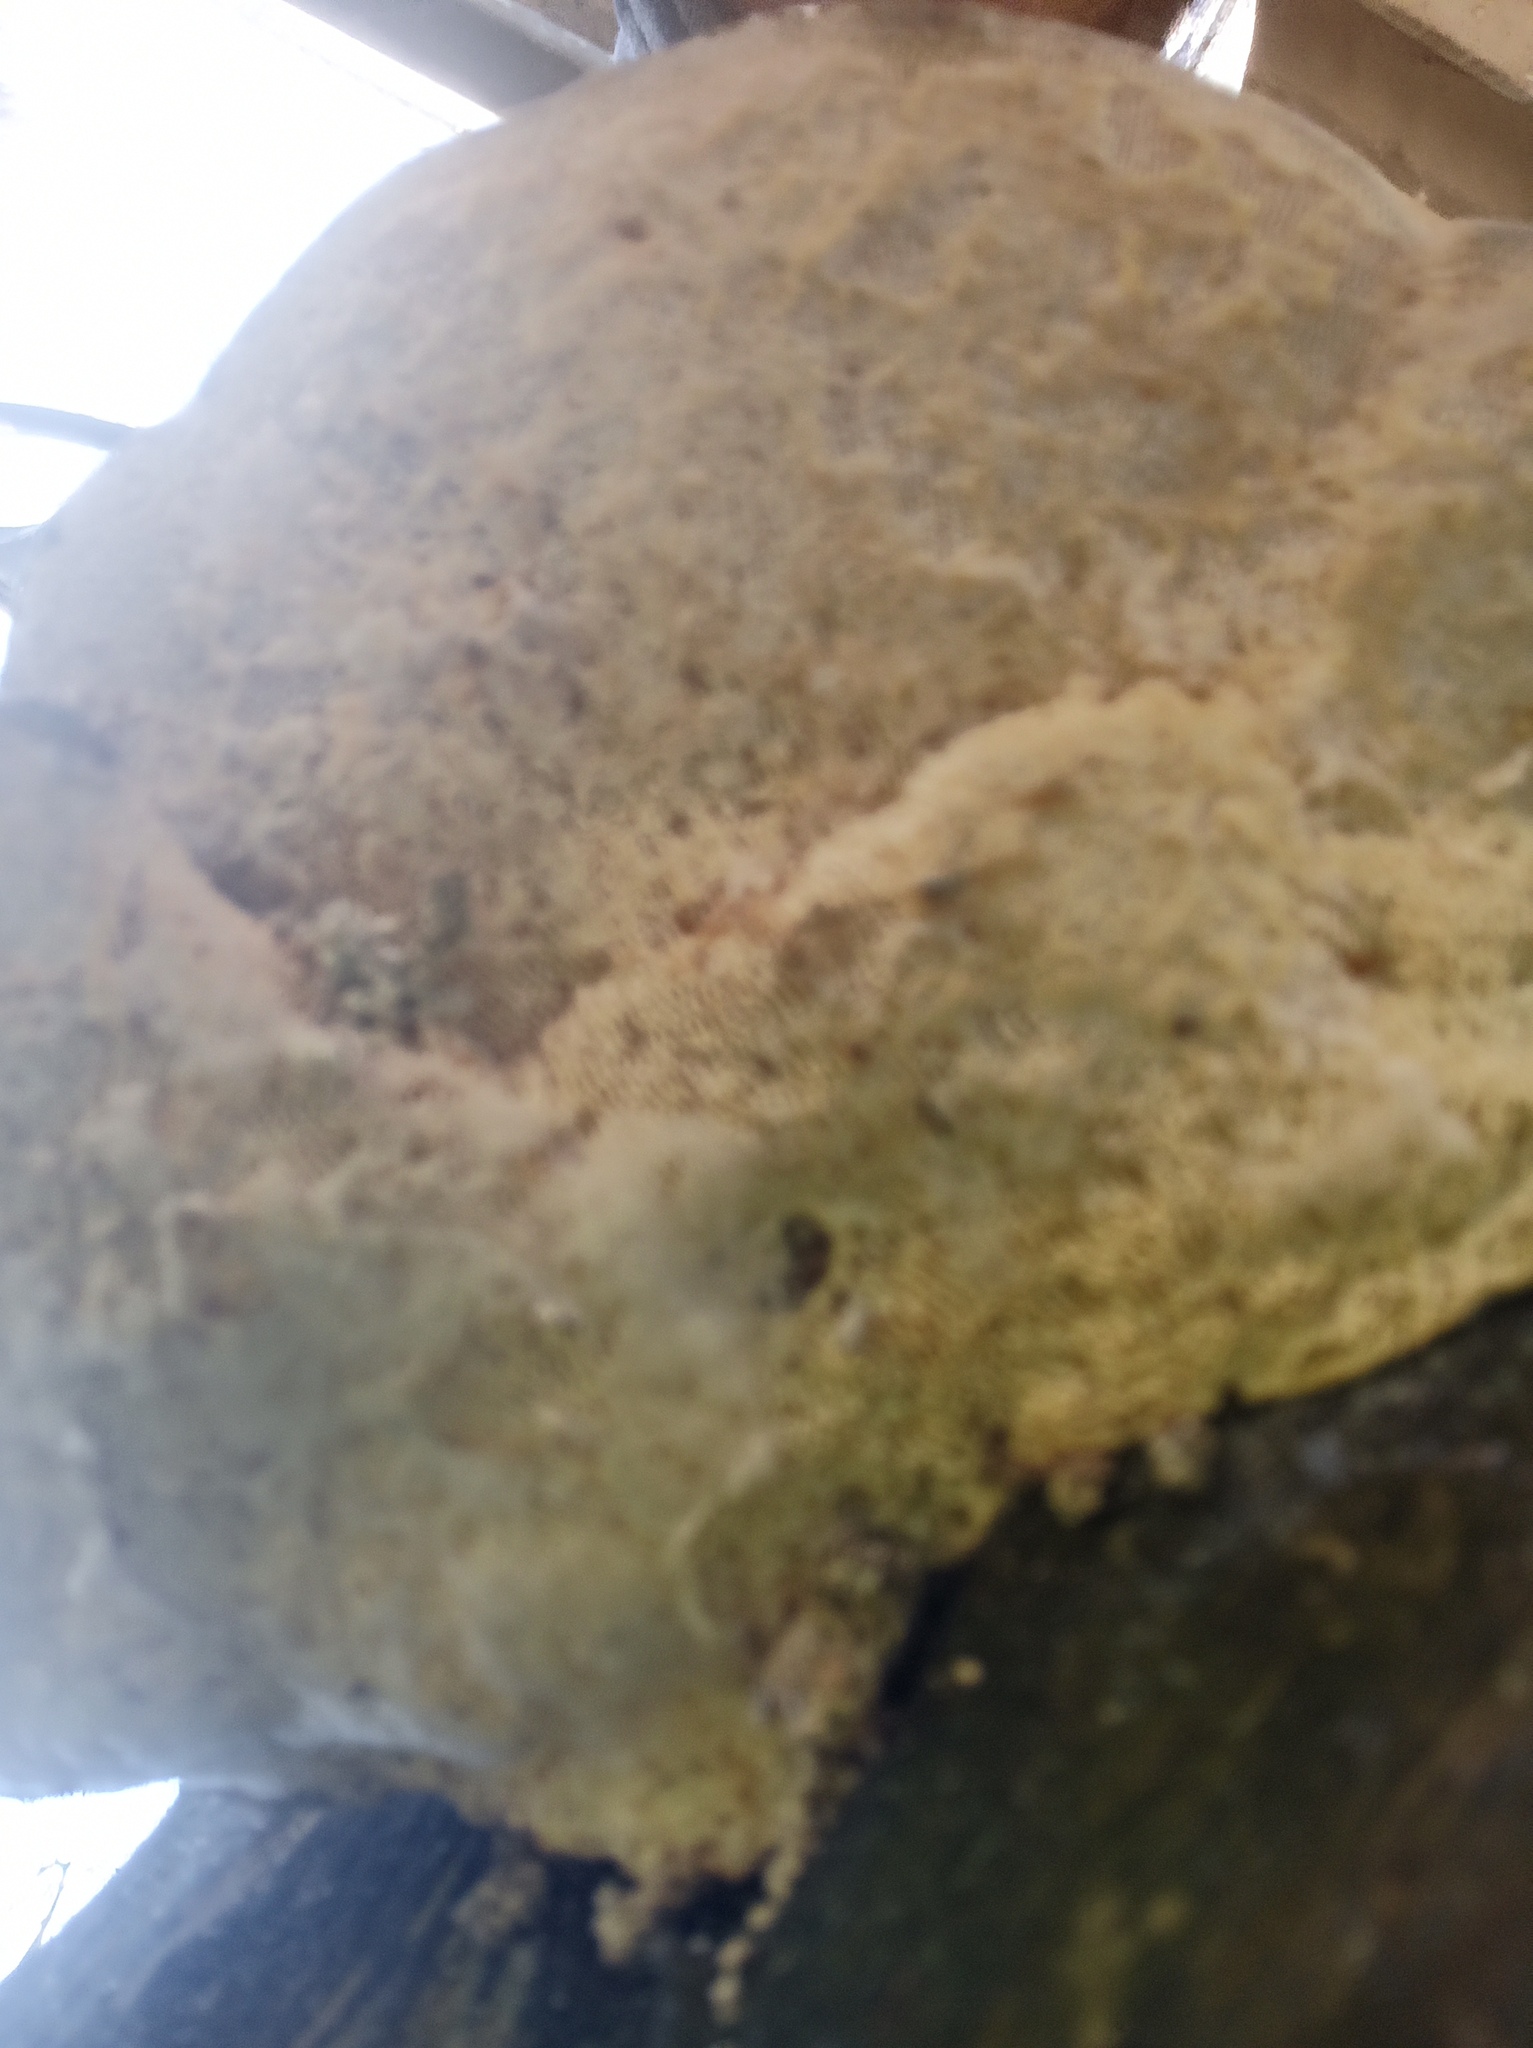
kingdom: Fungi
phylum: Basidiomycota
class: Agaricomycetes
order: Polyporales
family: Polyporaceae
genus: Trametes
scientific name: Trametes hirsuta
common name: Hairy bracket
